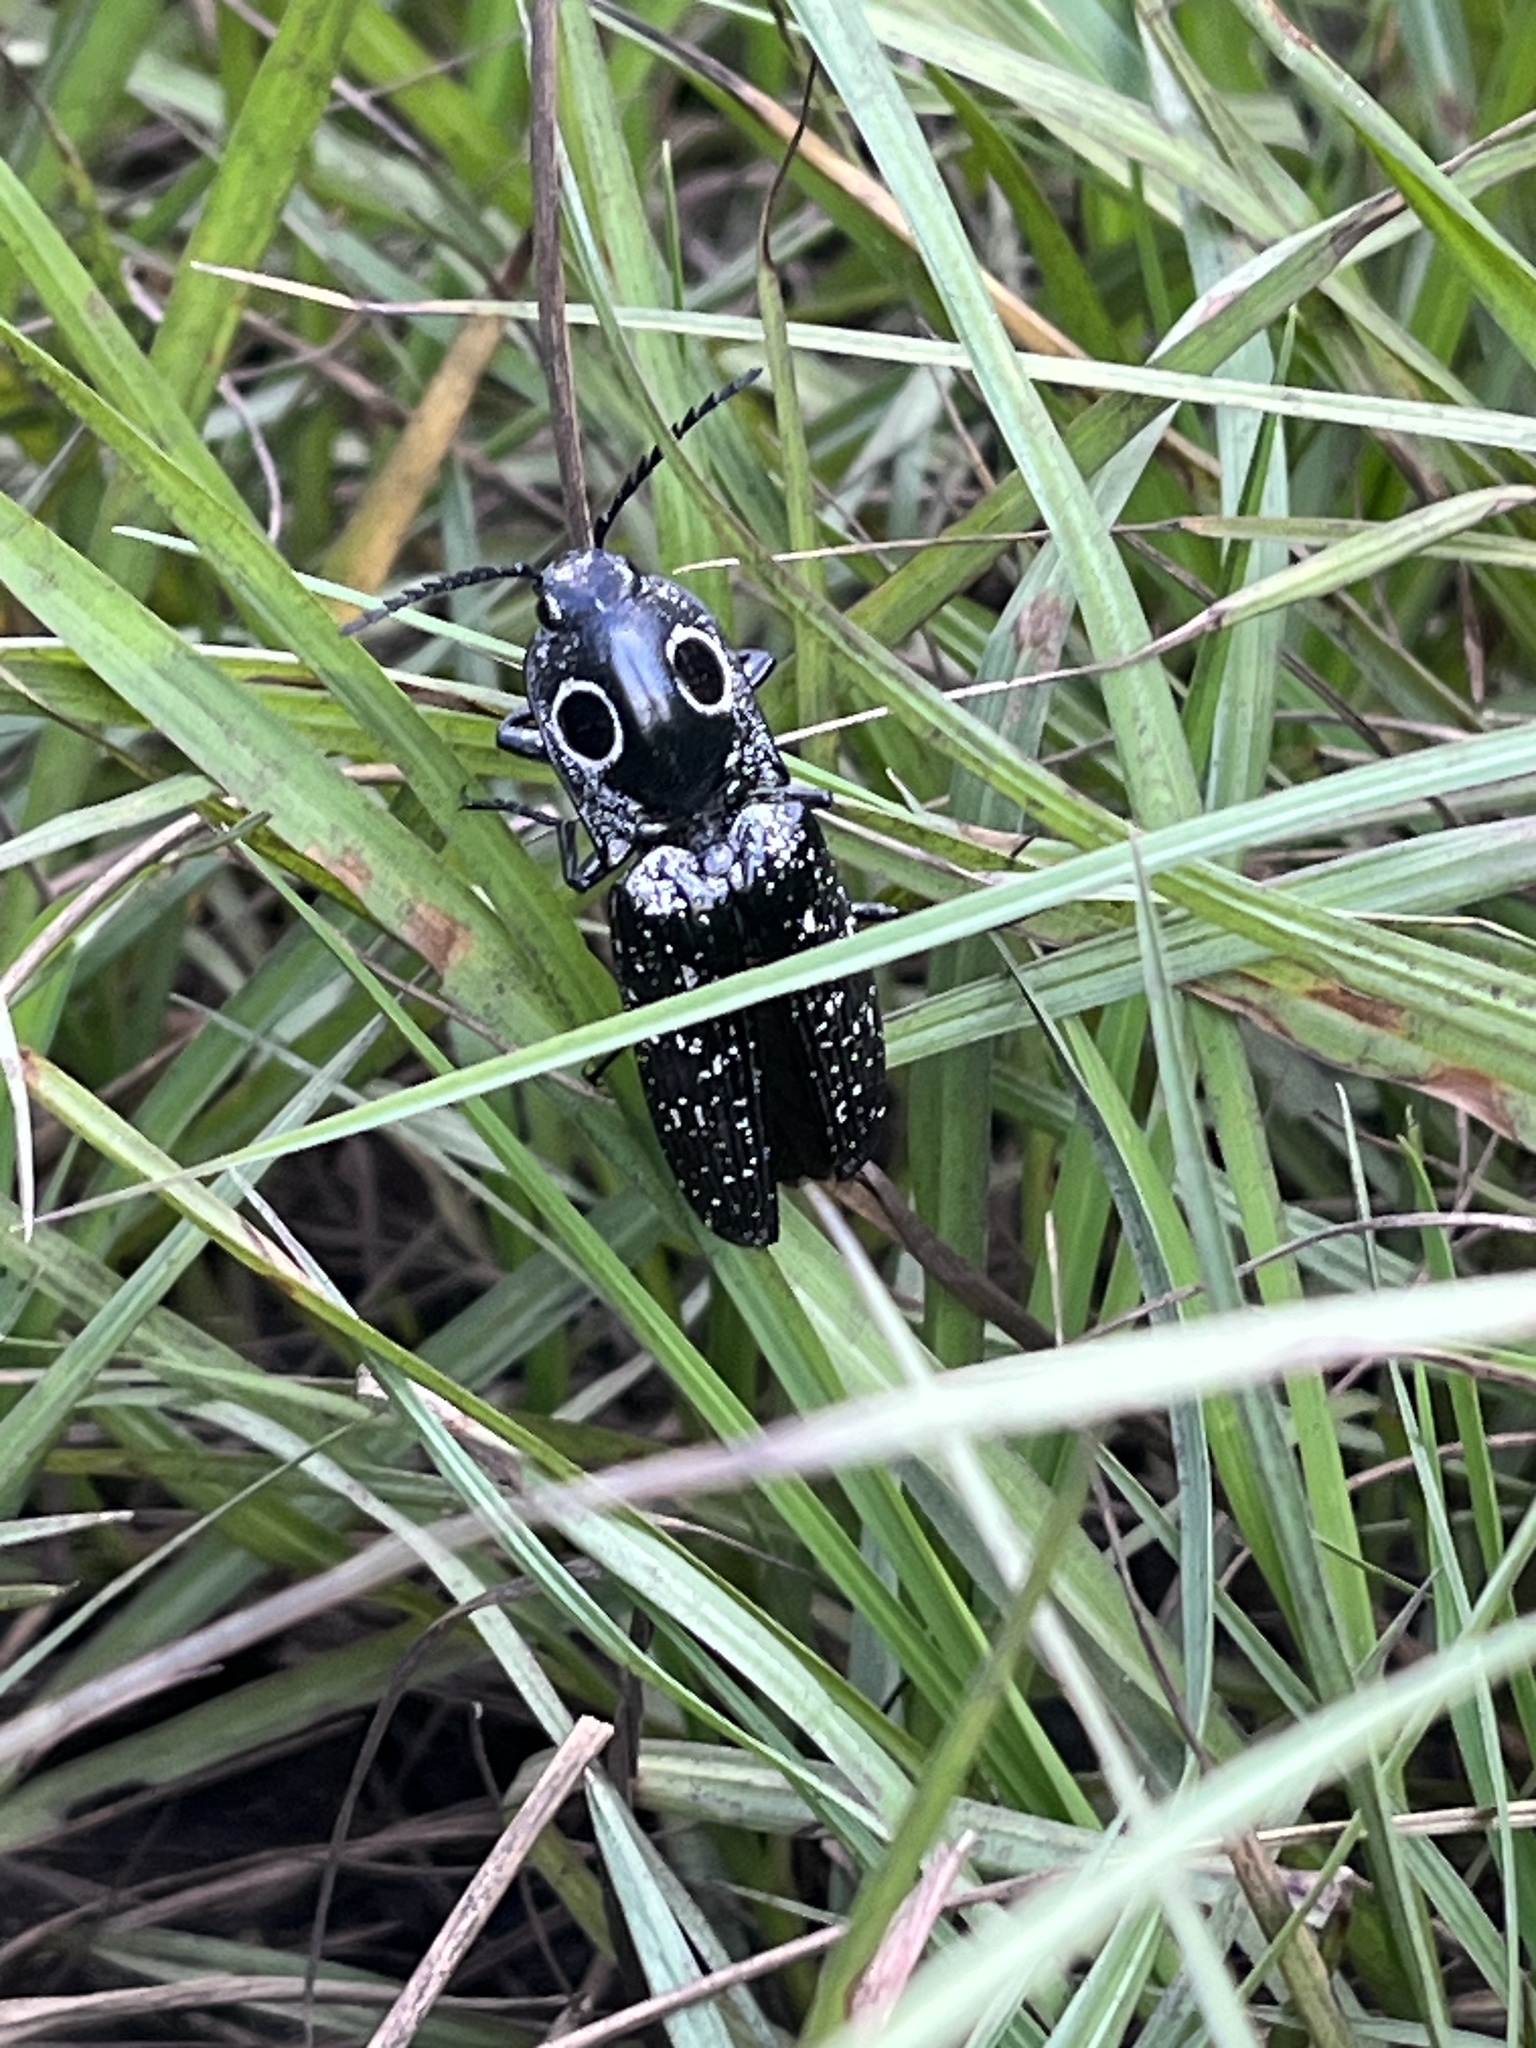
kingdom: Animalia
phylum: Arthropoda
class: Insecta
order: Coleoptera
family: Elateridae
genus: Alaus
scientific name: Alaus oculatus
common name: Eastern eyed click beetle
